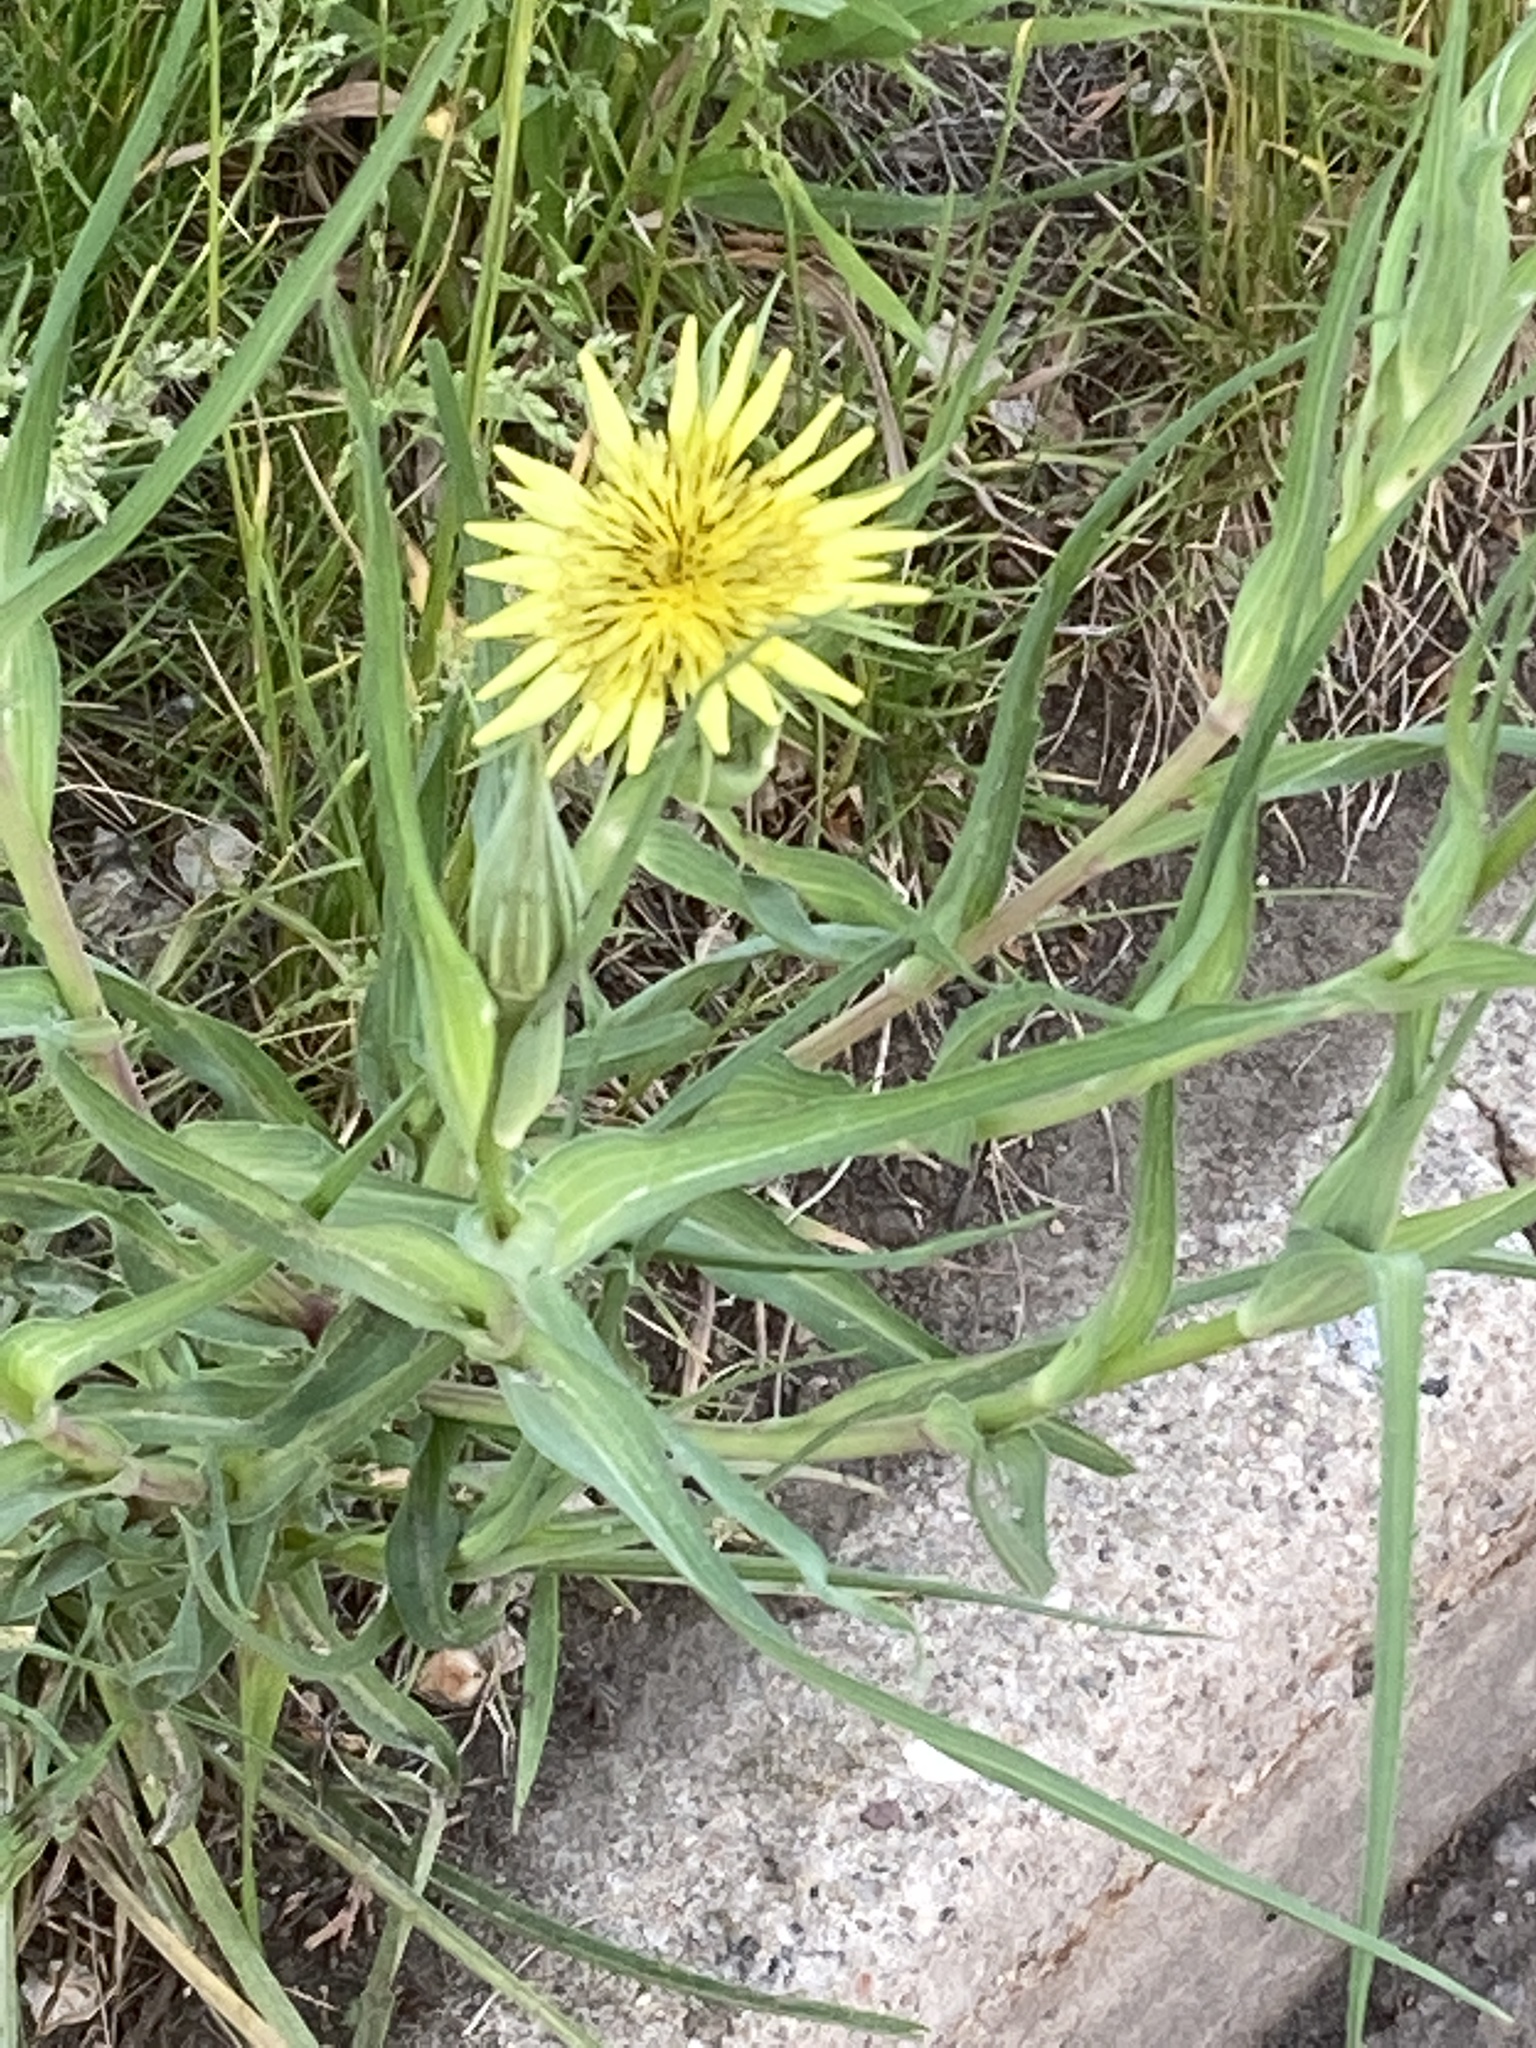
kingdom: Plantae
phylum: Tracheophyta
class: Magnoliopsida
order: Asterales
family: Asteraceae
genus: Tragopogon
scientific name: Tragopogon dubius
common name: Yellow salsify
